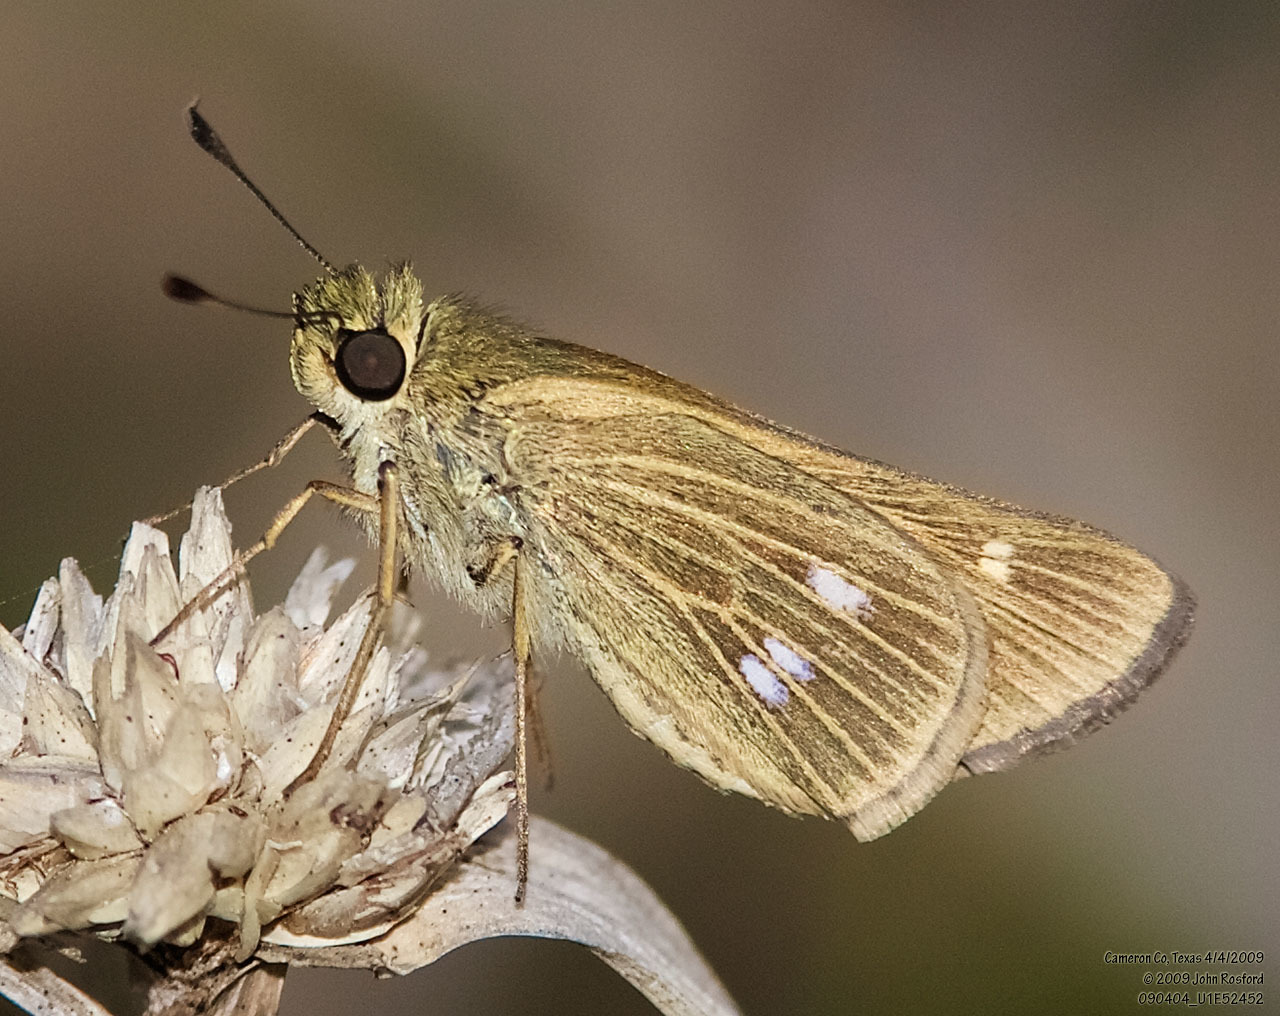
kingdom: Animalia
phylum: Arthropoda
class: Insecta
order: Lepidoptera
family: Hesperiidae
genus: Panoquina
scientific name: Panoquina panoquinoides
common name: Beach skipper
